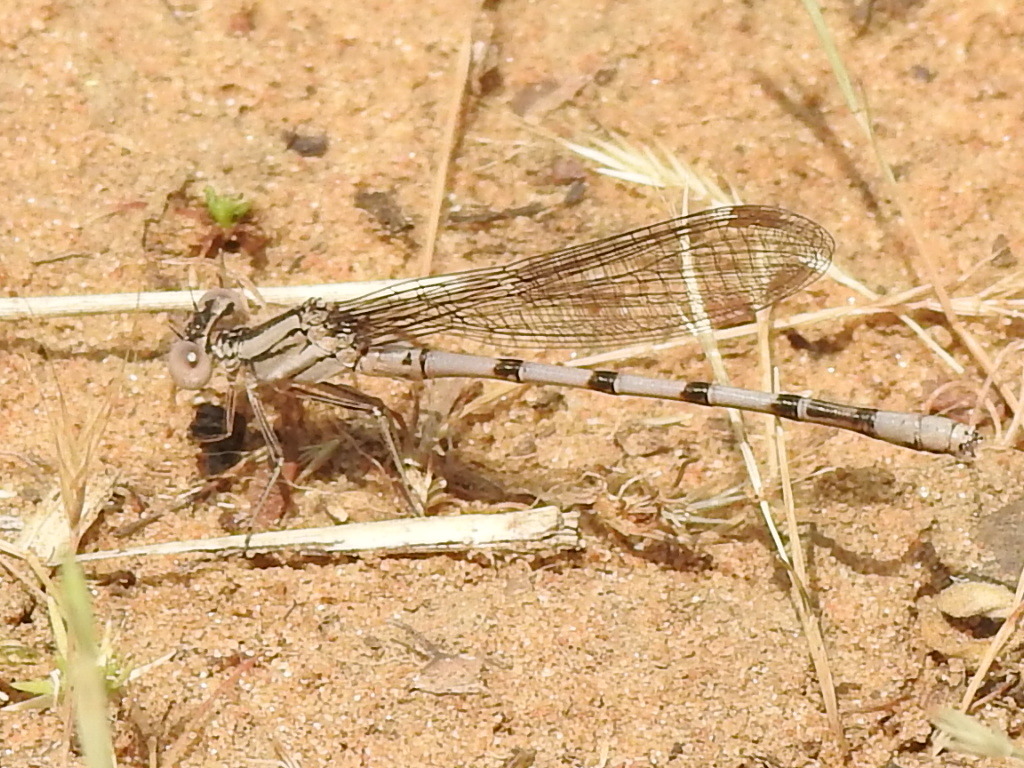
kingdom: Animalia
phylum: Arthropoda
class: Insecta
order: Odonata
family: Coenagrionidae
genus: Argia
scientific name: Argia nahuana
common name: Aztec dancer
